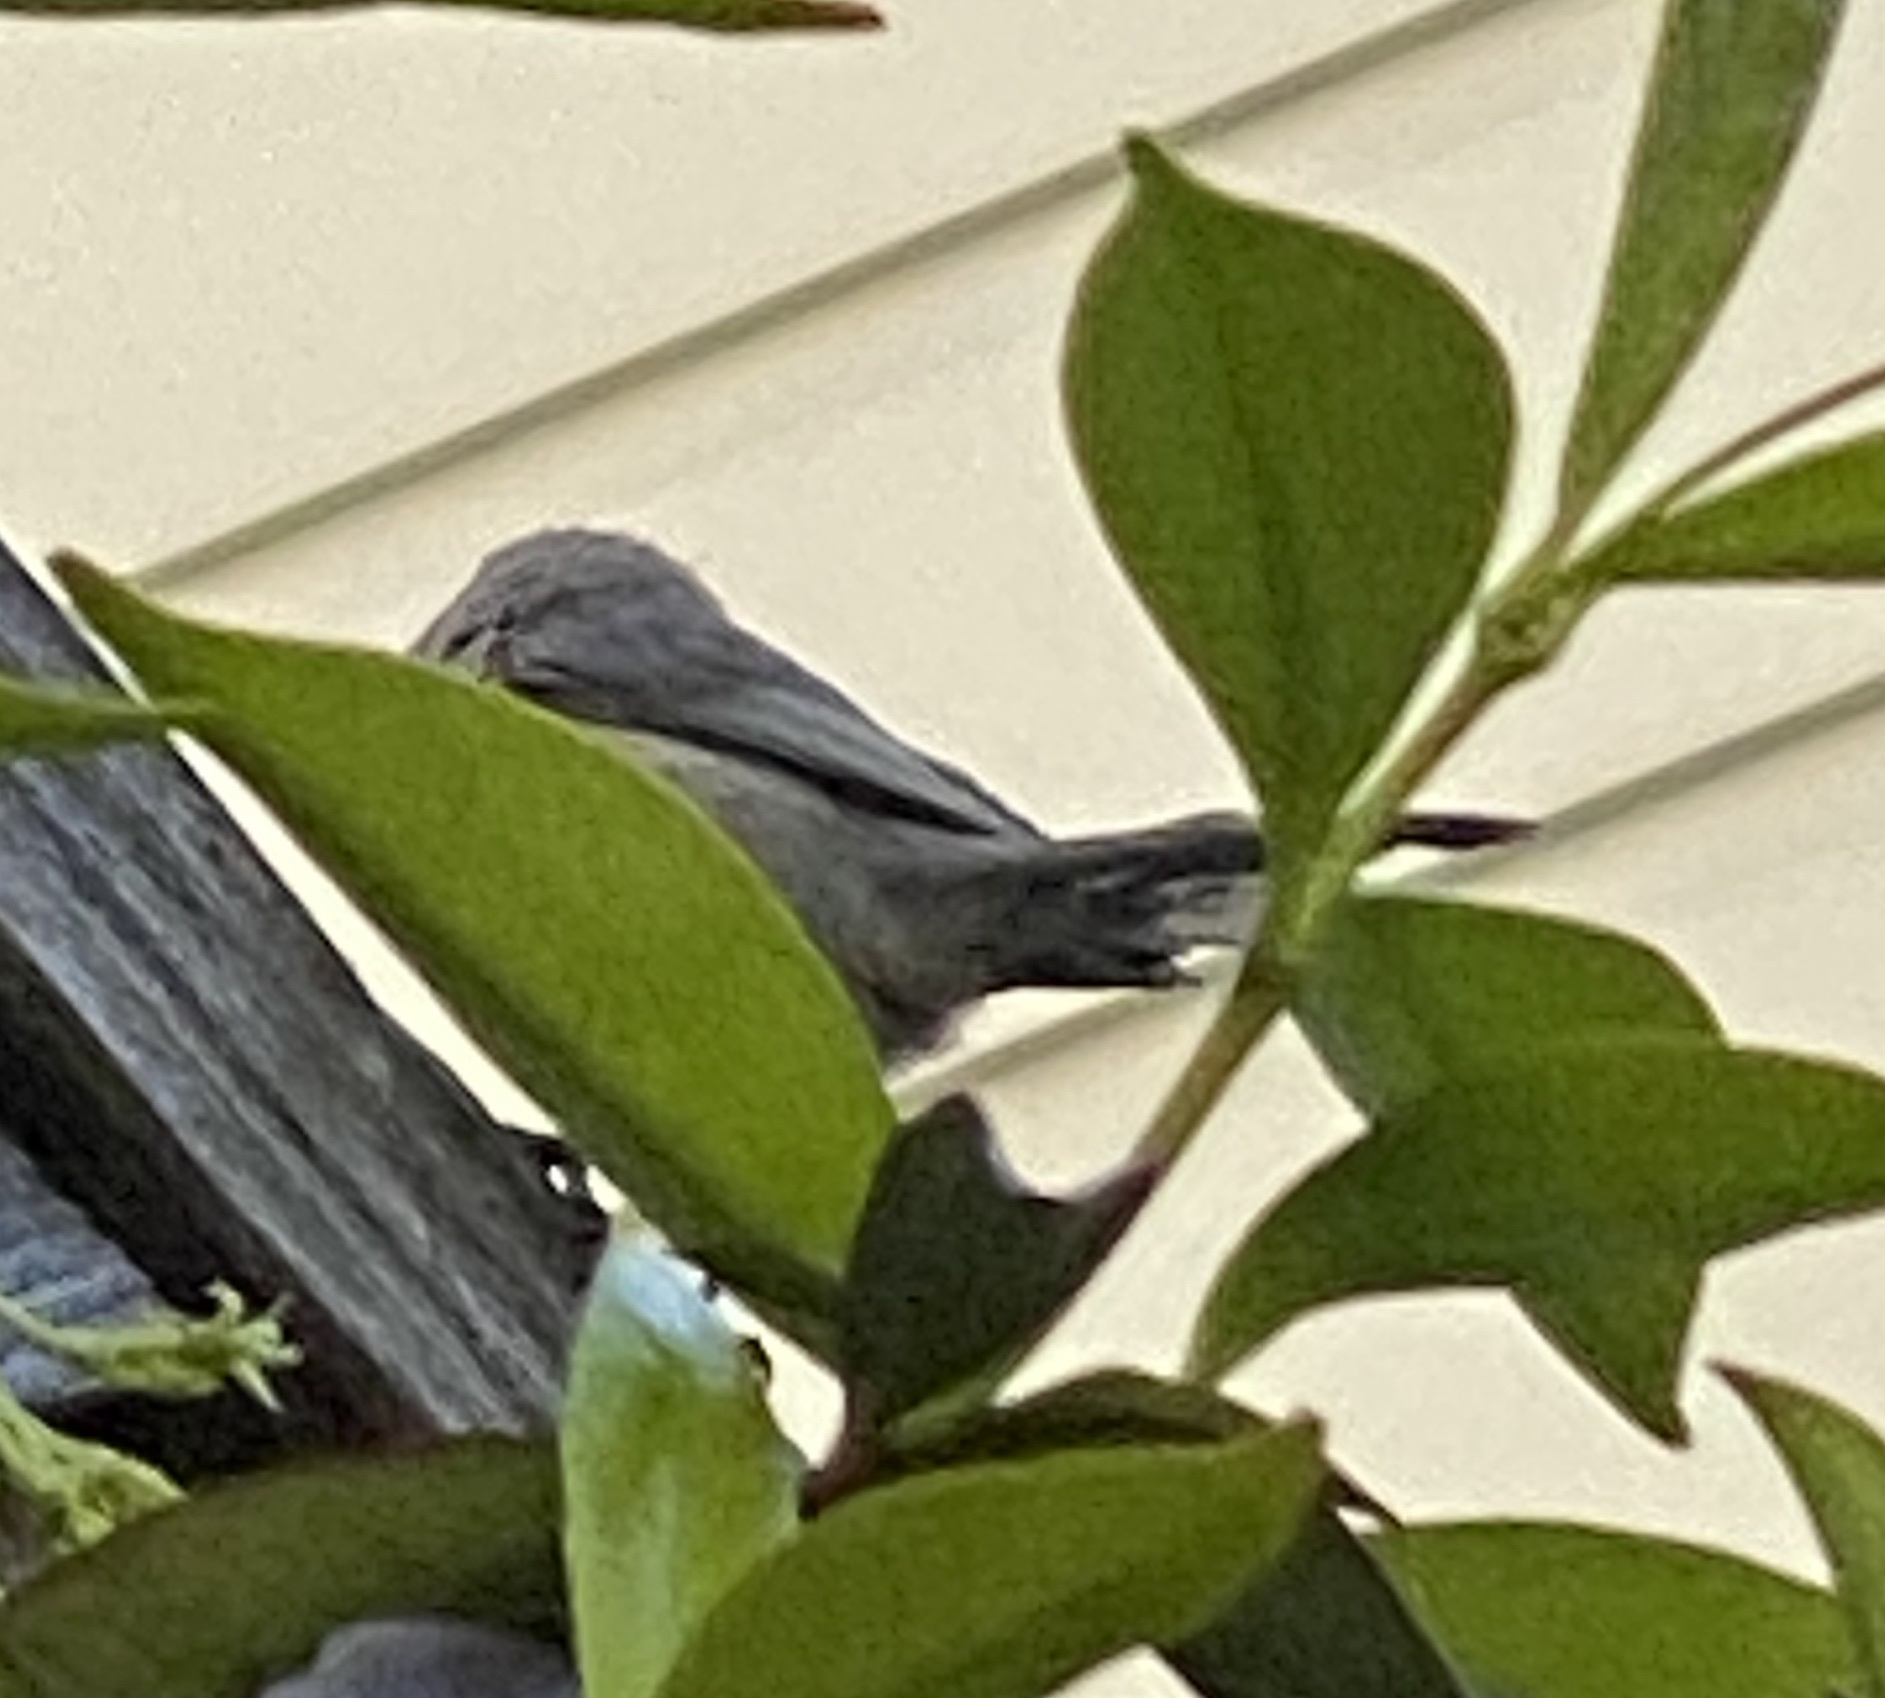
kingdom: Animalia
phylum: Chordata
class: Aves
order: Passeriformes
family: Aegithalidae
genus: Psaltriparus
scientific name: Psaltriparus minimus
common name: American bushtit
